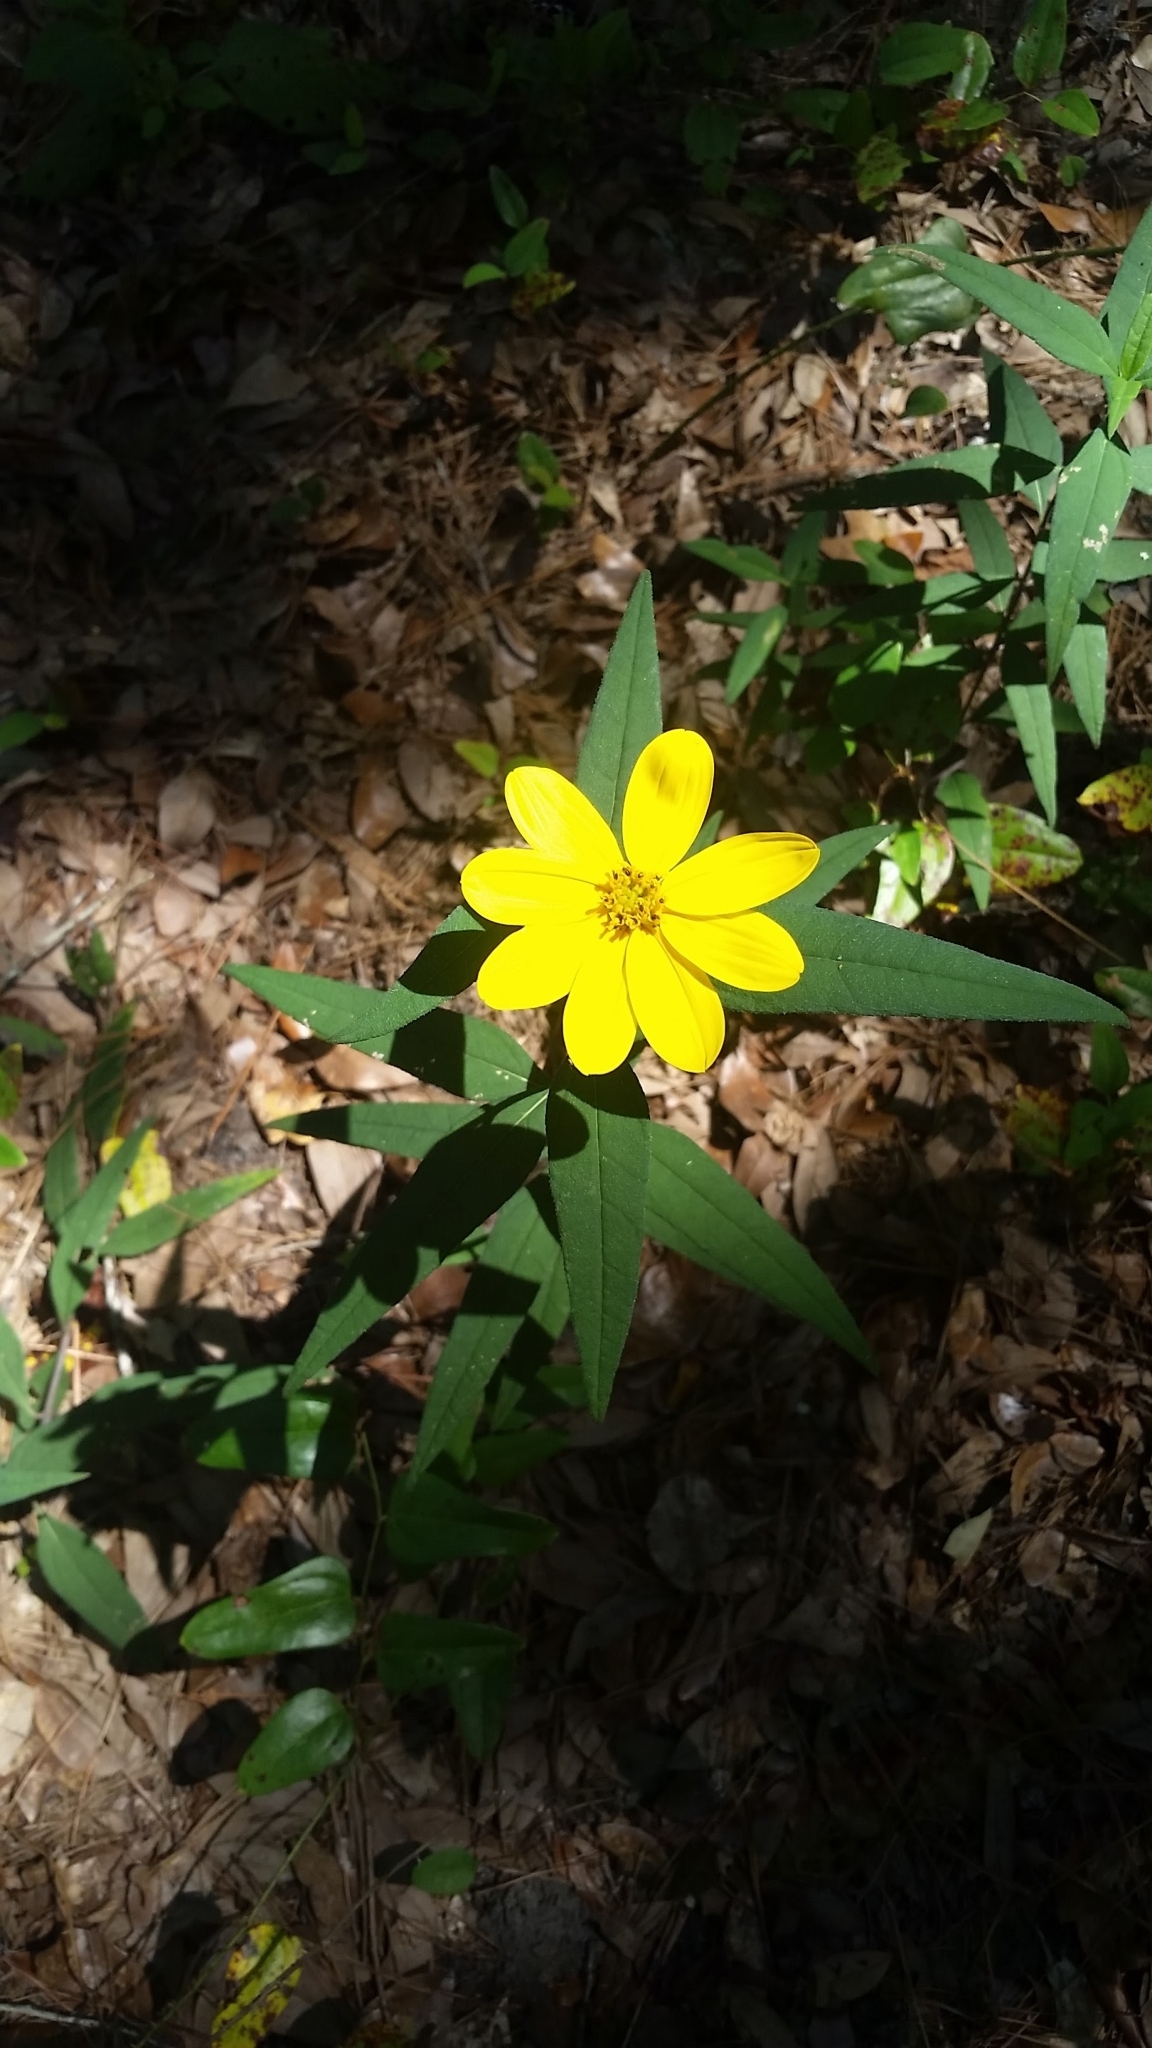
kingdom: Plantae
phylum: Tracheophyta
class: Magnoliopsida
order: Asterales
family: Asteraceae
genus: Helianthus
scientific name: Helianthus divaricatus
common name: Divergent sunflower
